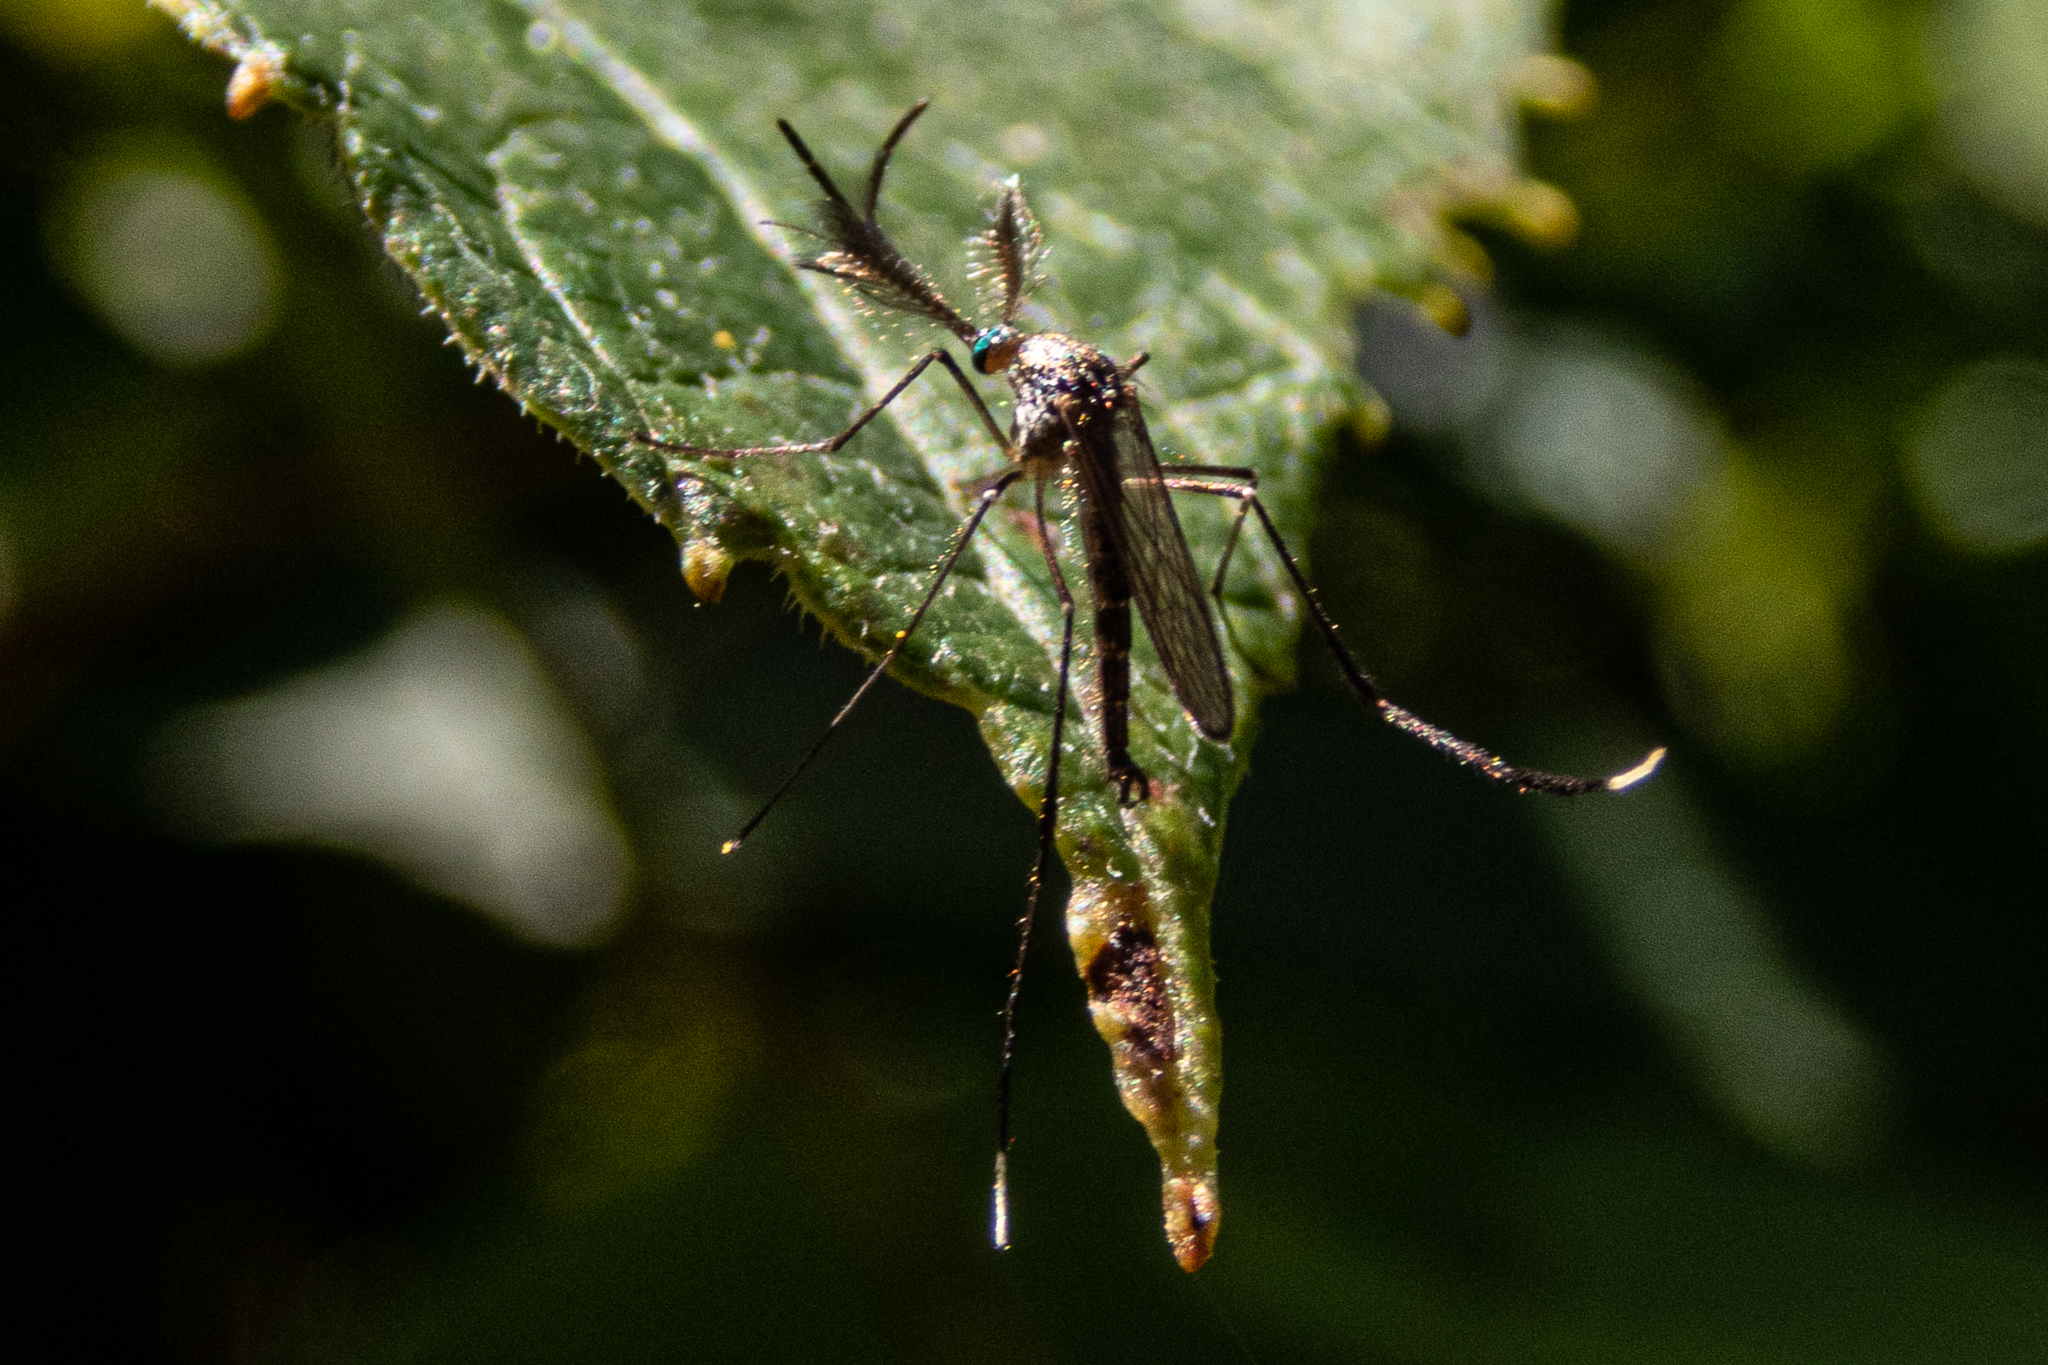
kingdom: Animalia
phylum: Arthropoda
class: Insecta
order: Diptera
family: Culicidae
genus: Psorophora
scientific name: Psorophora ferox
